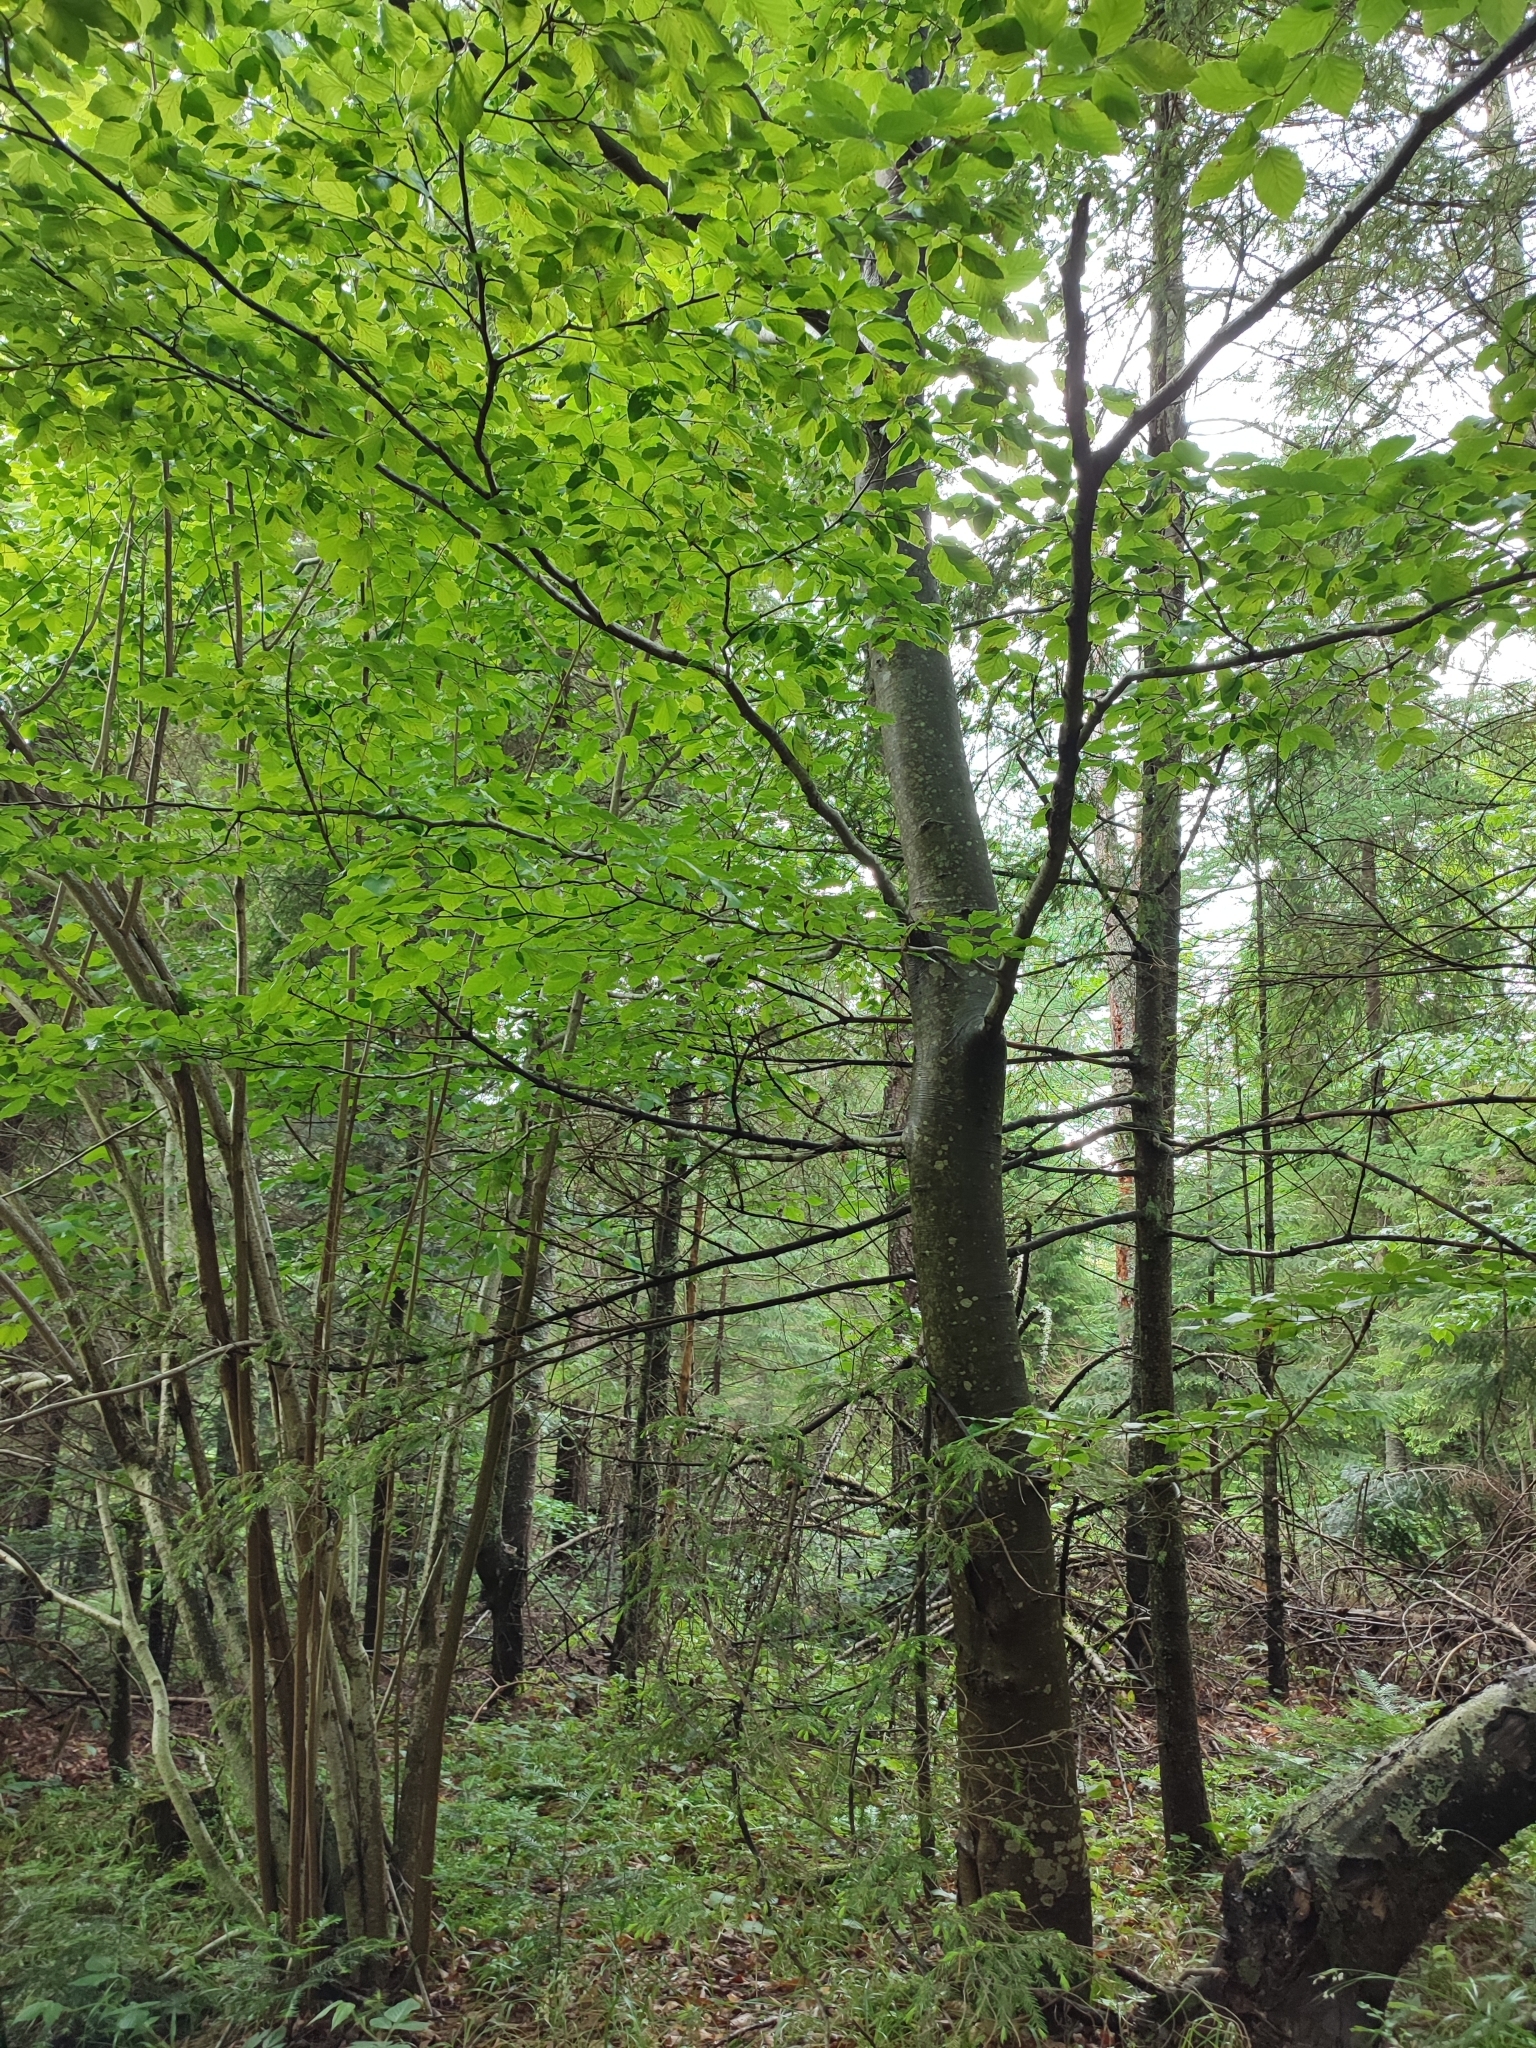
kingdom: Plantae
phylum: Tracheophyta
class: Magnoliopsida
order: Fagales
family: Fagaceae
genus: Fagus
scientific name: Fagus sylvatica
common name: Beech
